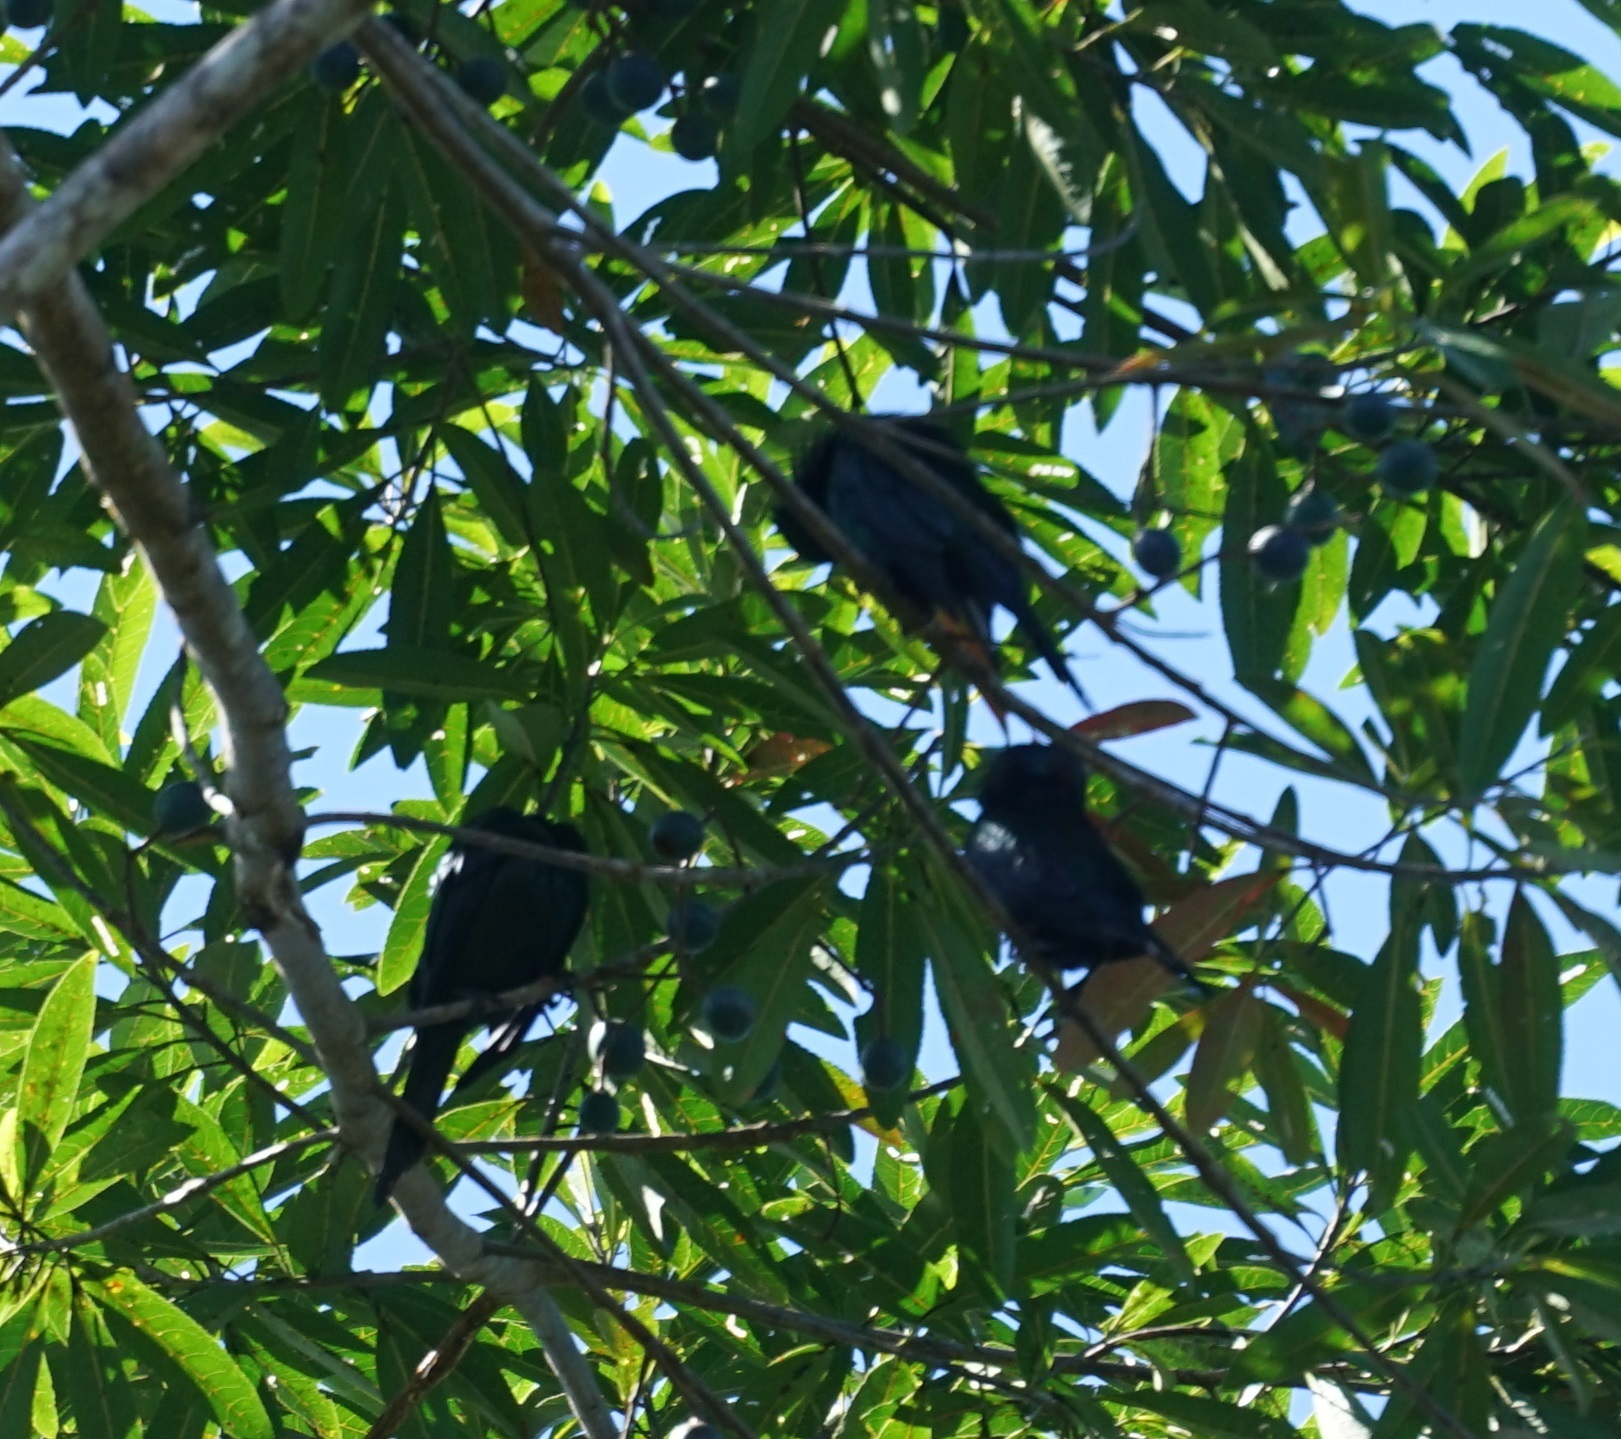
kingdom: Animalia
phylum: Chordata
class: Aves
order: Passeriformes
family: Sturnidae
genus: Aplonis
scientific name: Aplonis metallica
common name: Metallic starling
